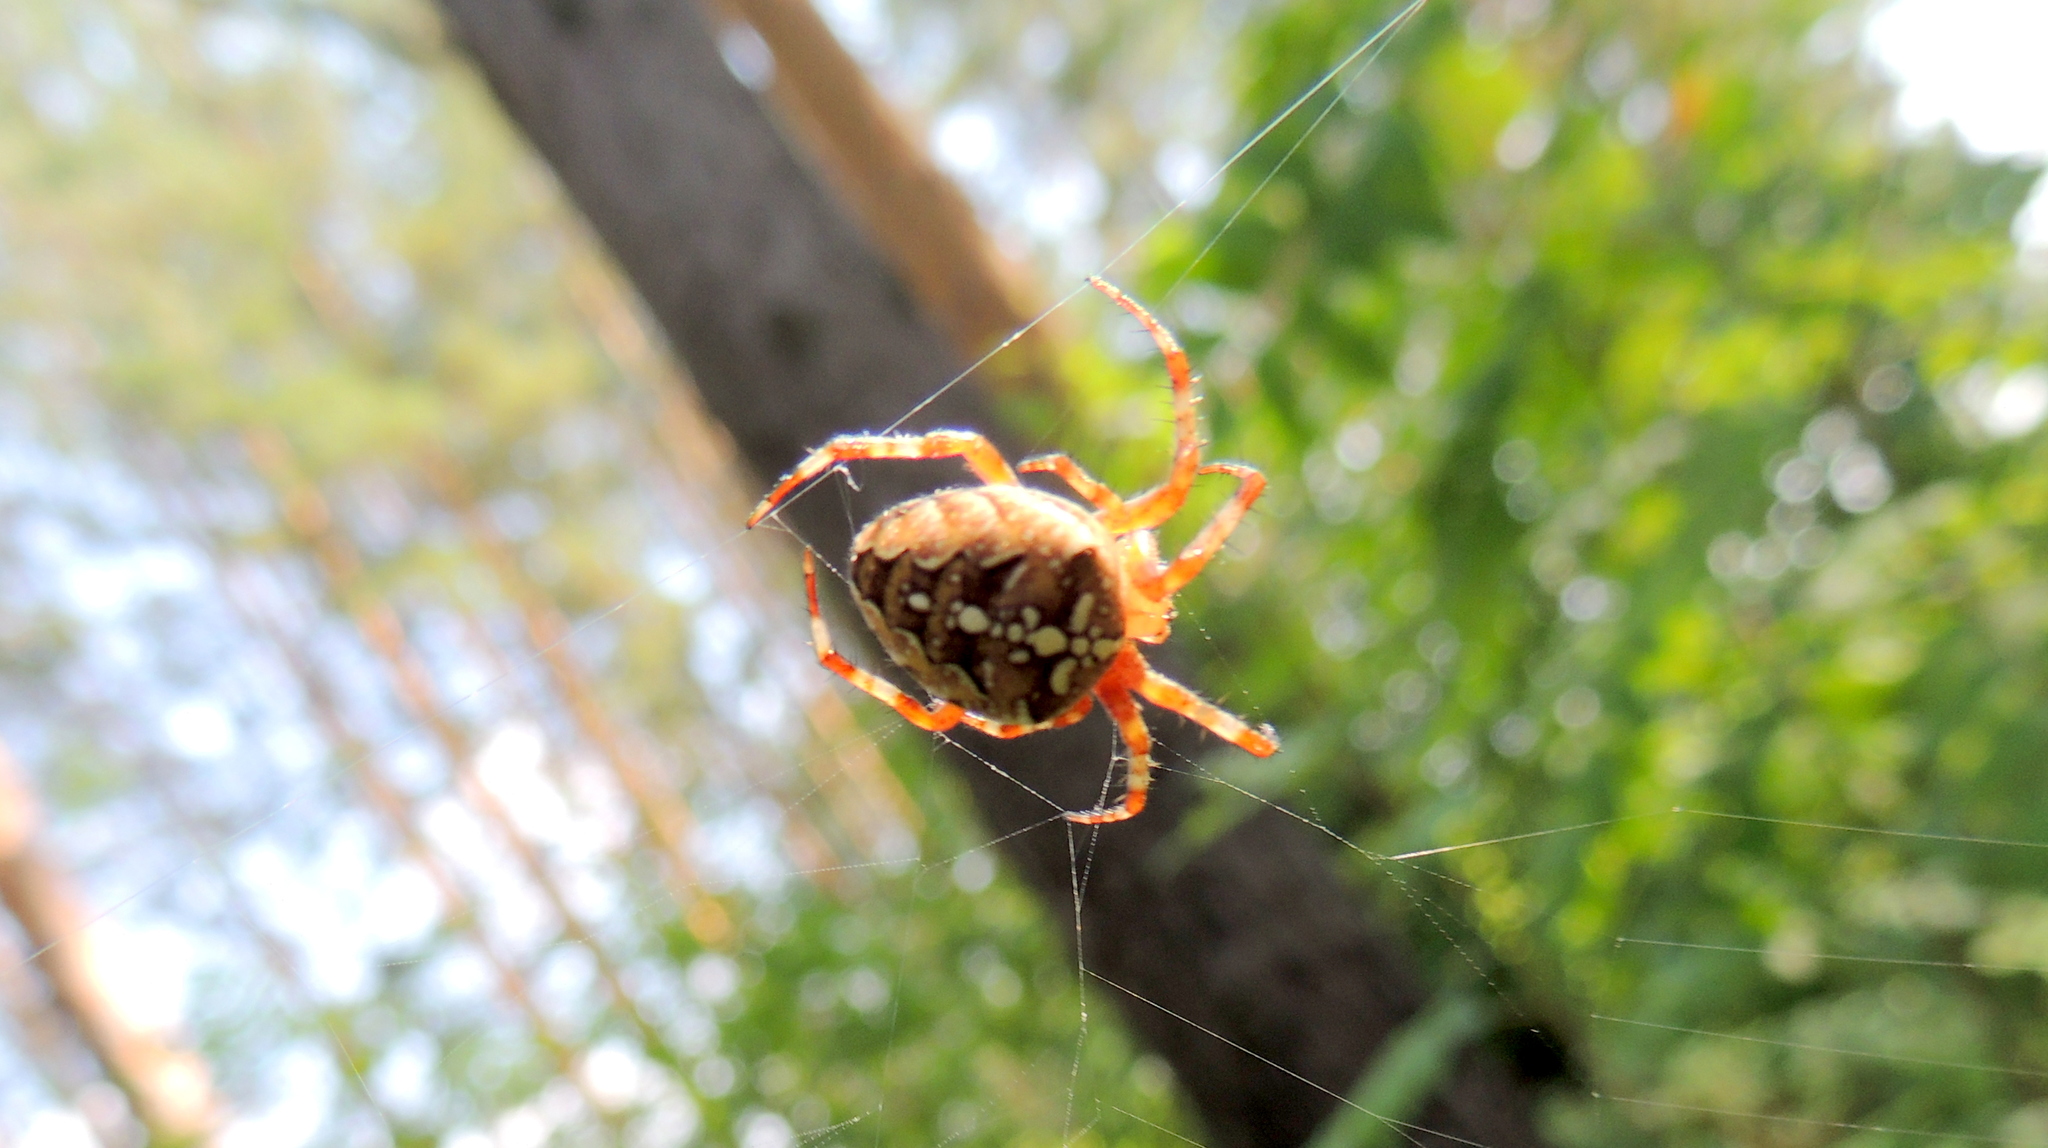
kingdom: Animalia
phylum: Arthropoda
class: Arachnida
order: Araneae
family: Araneidae
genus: Araneus
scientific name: Araneus diadematus
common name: Cross orbweaver
